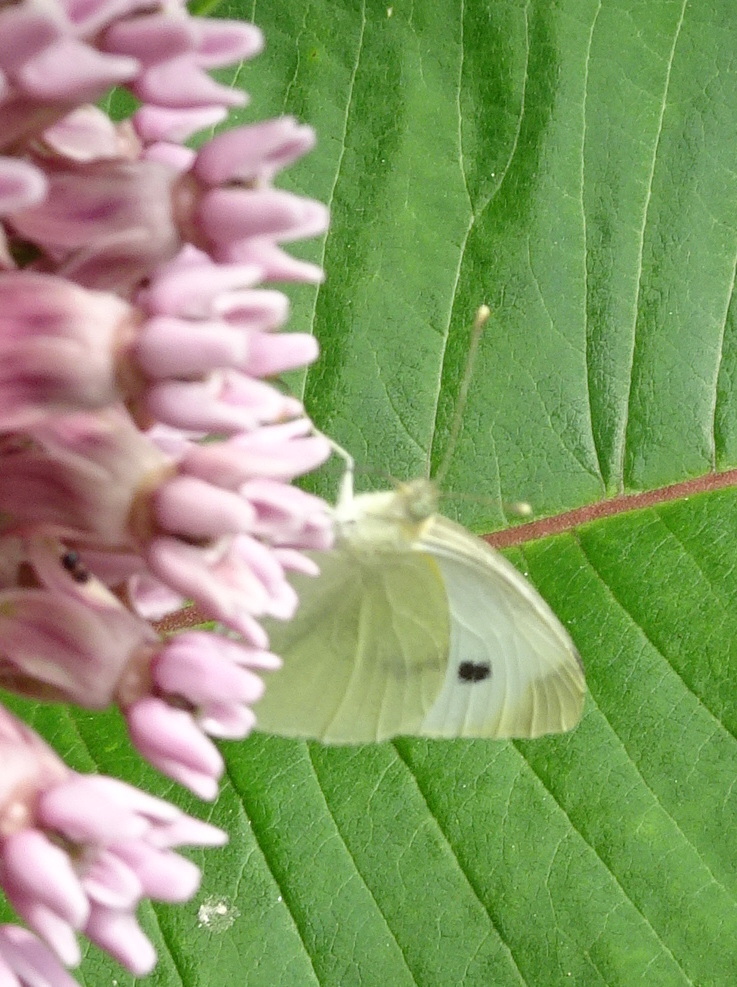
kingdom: Animalia
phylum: Arthropoda
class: Insecta
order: Lepidoptera
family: Pieridae
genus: Pieris
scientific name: Pieris rapae
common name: Small white
